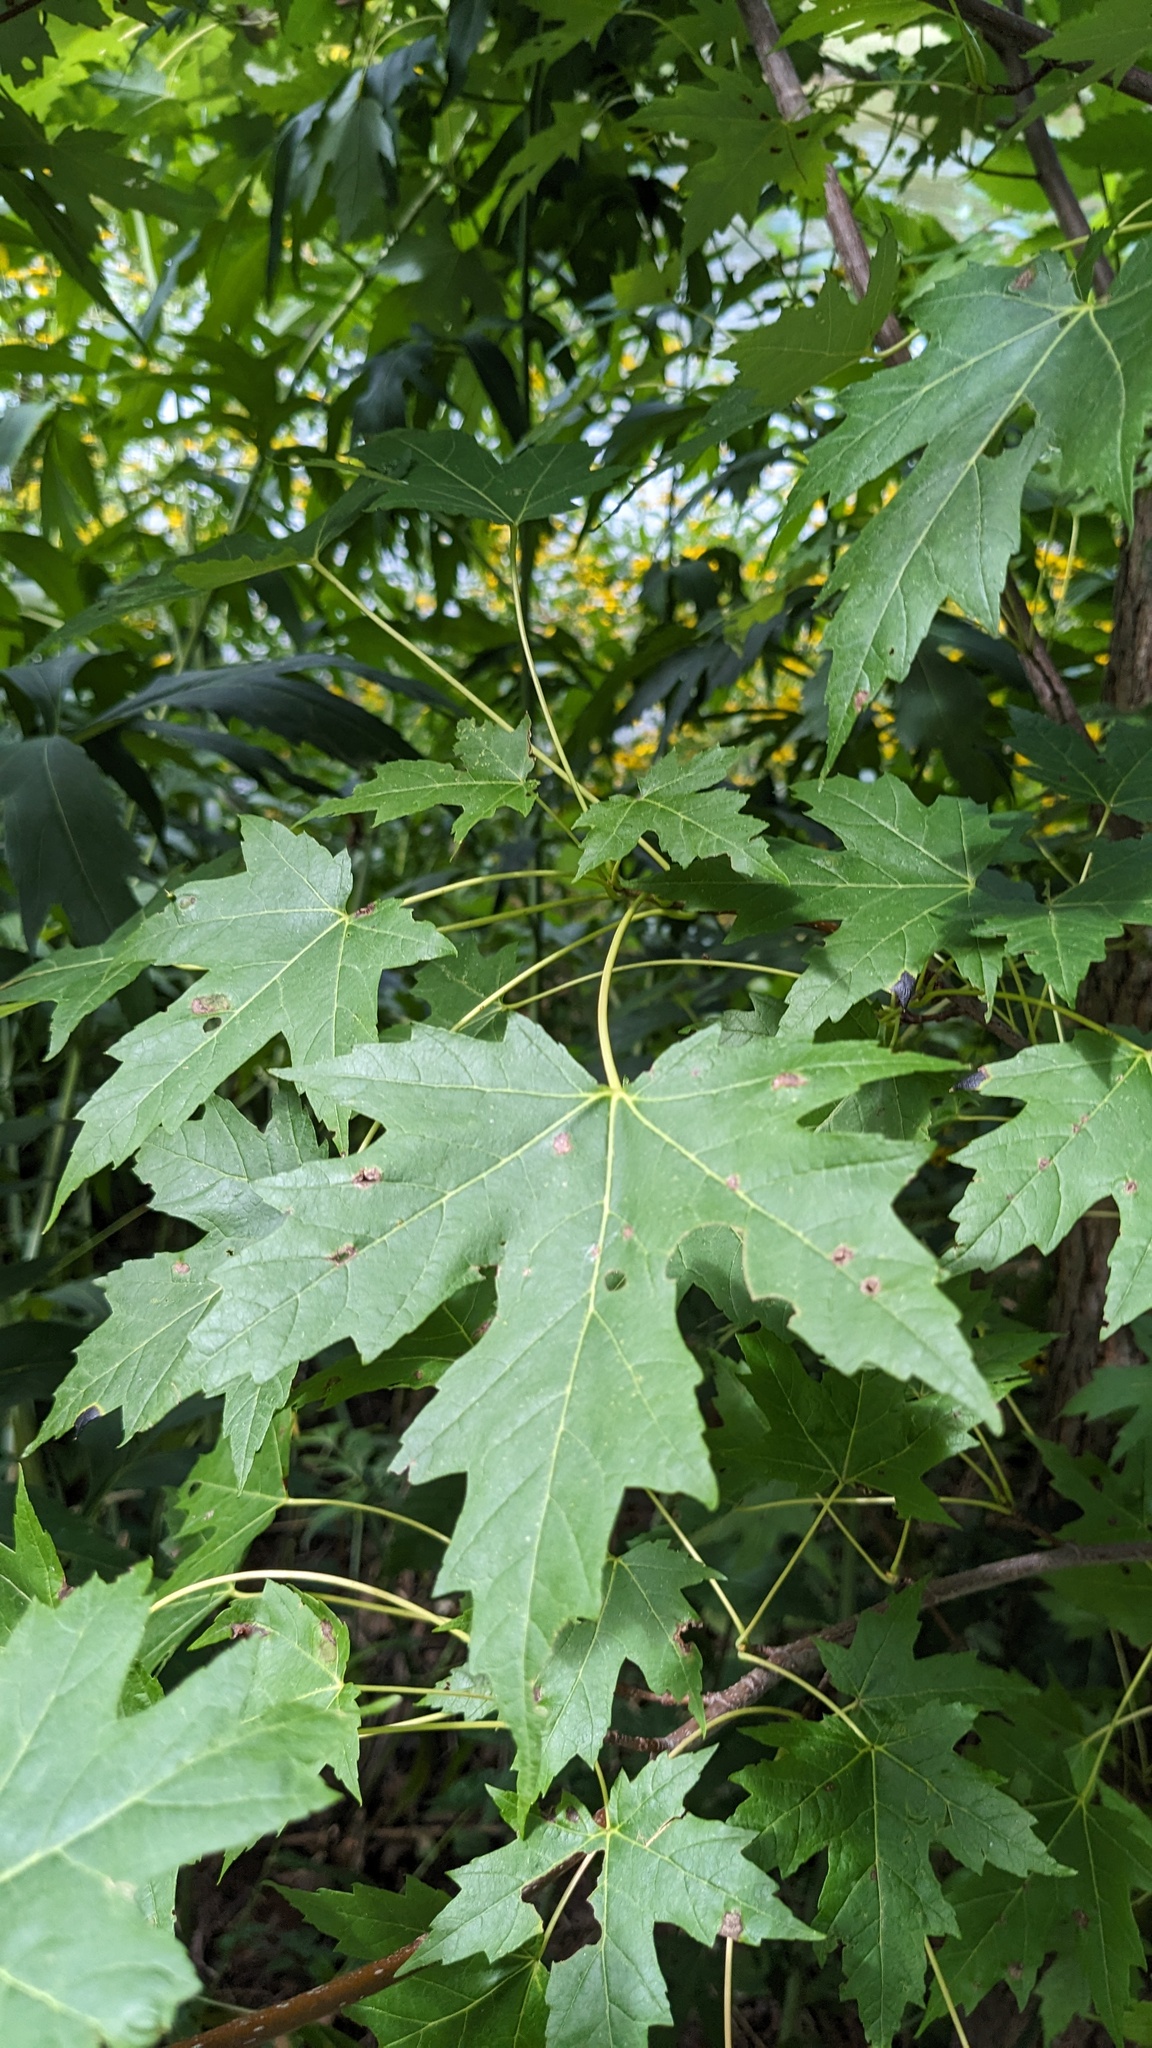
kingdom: Plantae
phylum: Tracheophyta
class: Magnoliopsida
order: Sapindales
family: Sapindaceae
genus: Acer
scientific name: Acer saccharinum
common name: Silver maple
